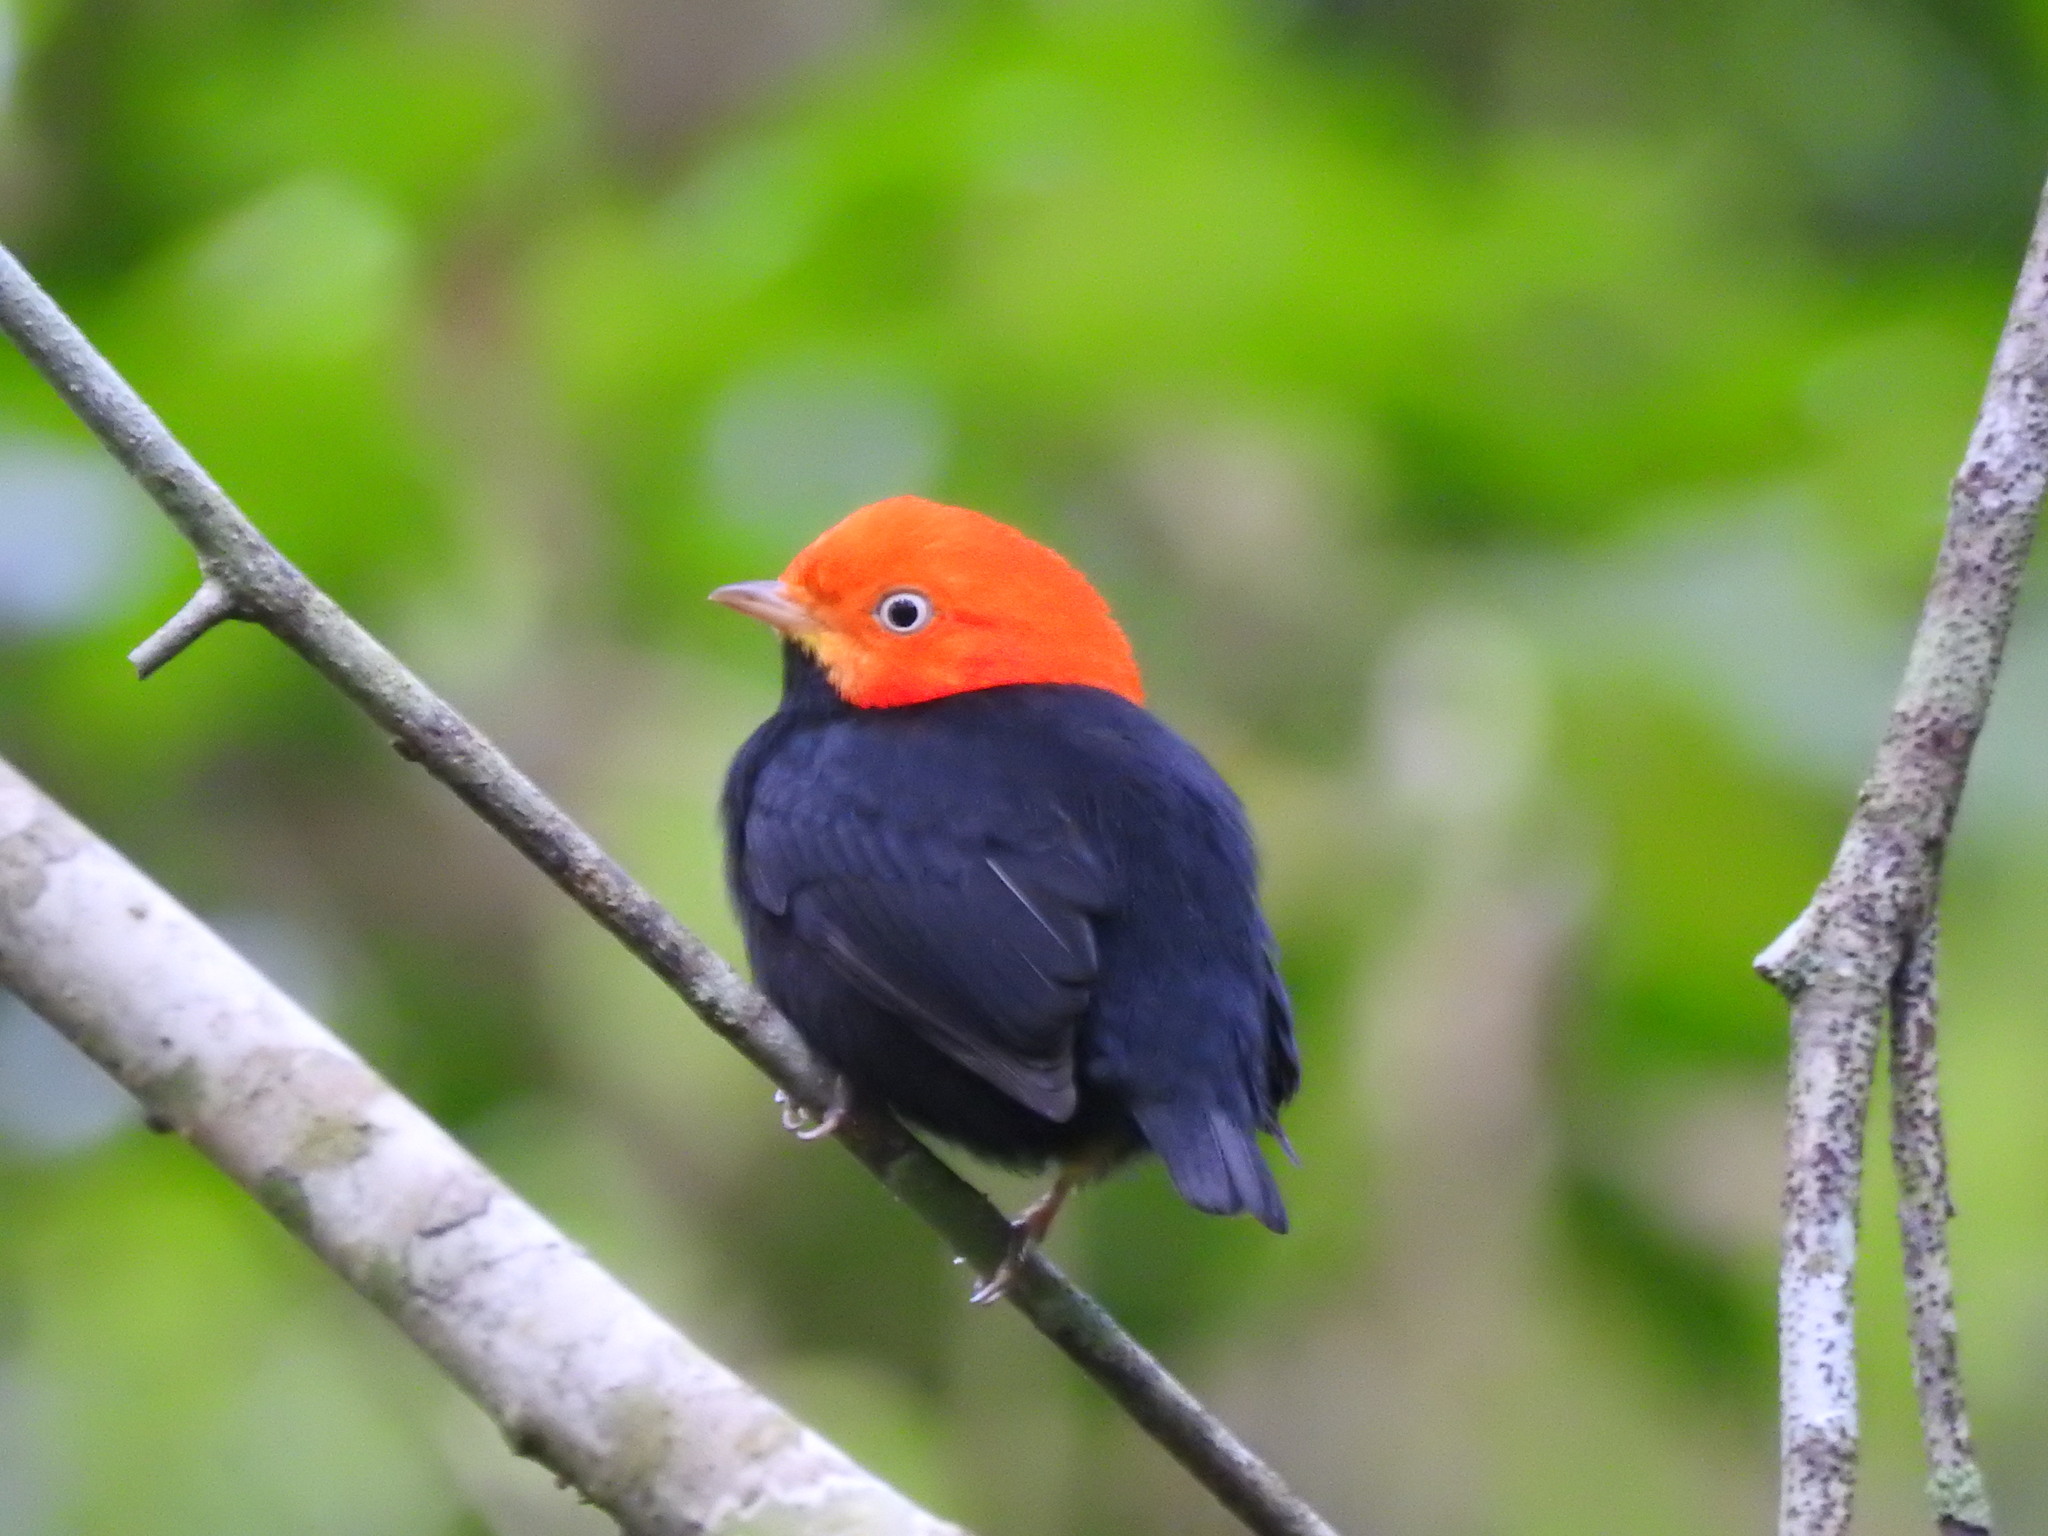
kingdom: Animalia
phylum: Chordata
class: Aves
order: Passeriformes
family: Pipridae
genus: Pipra
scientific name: Pipra mentalis
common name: Red-capped manakin
